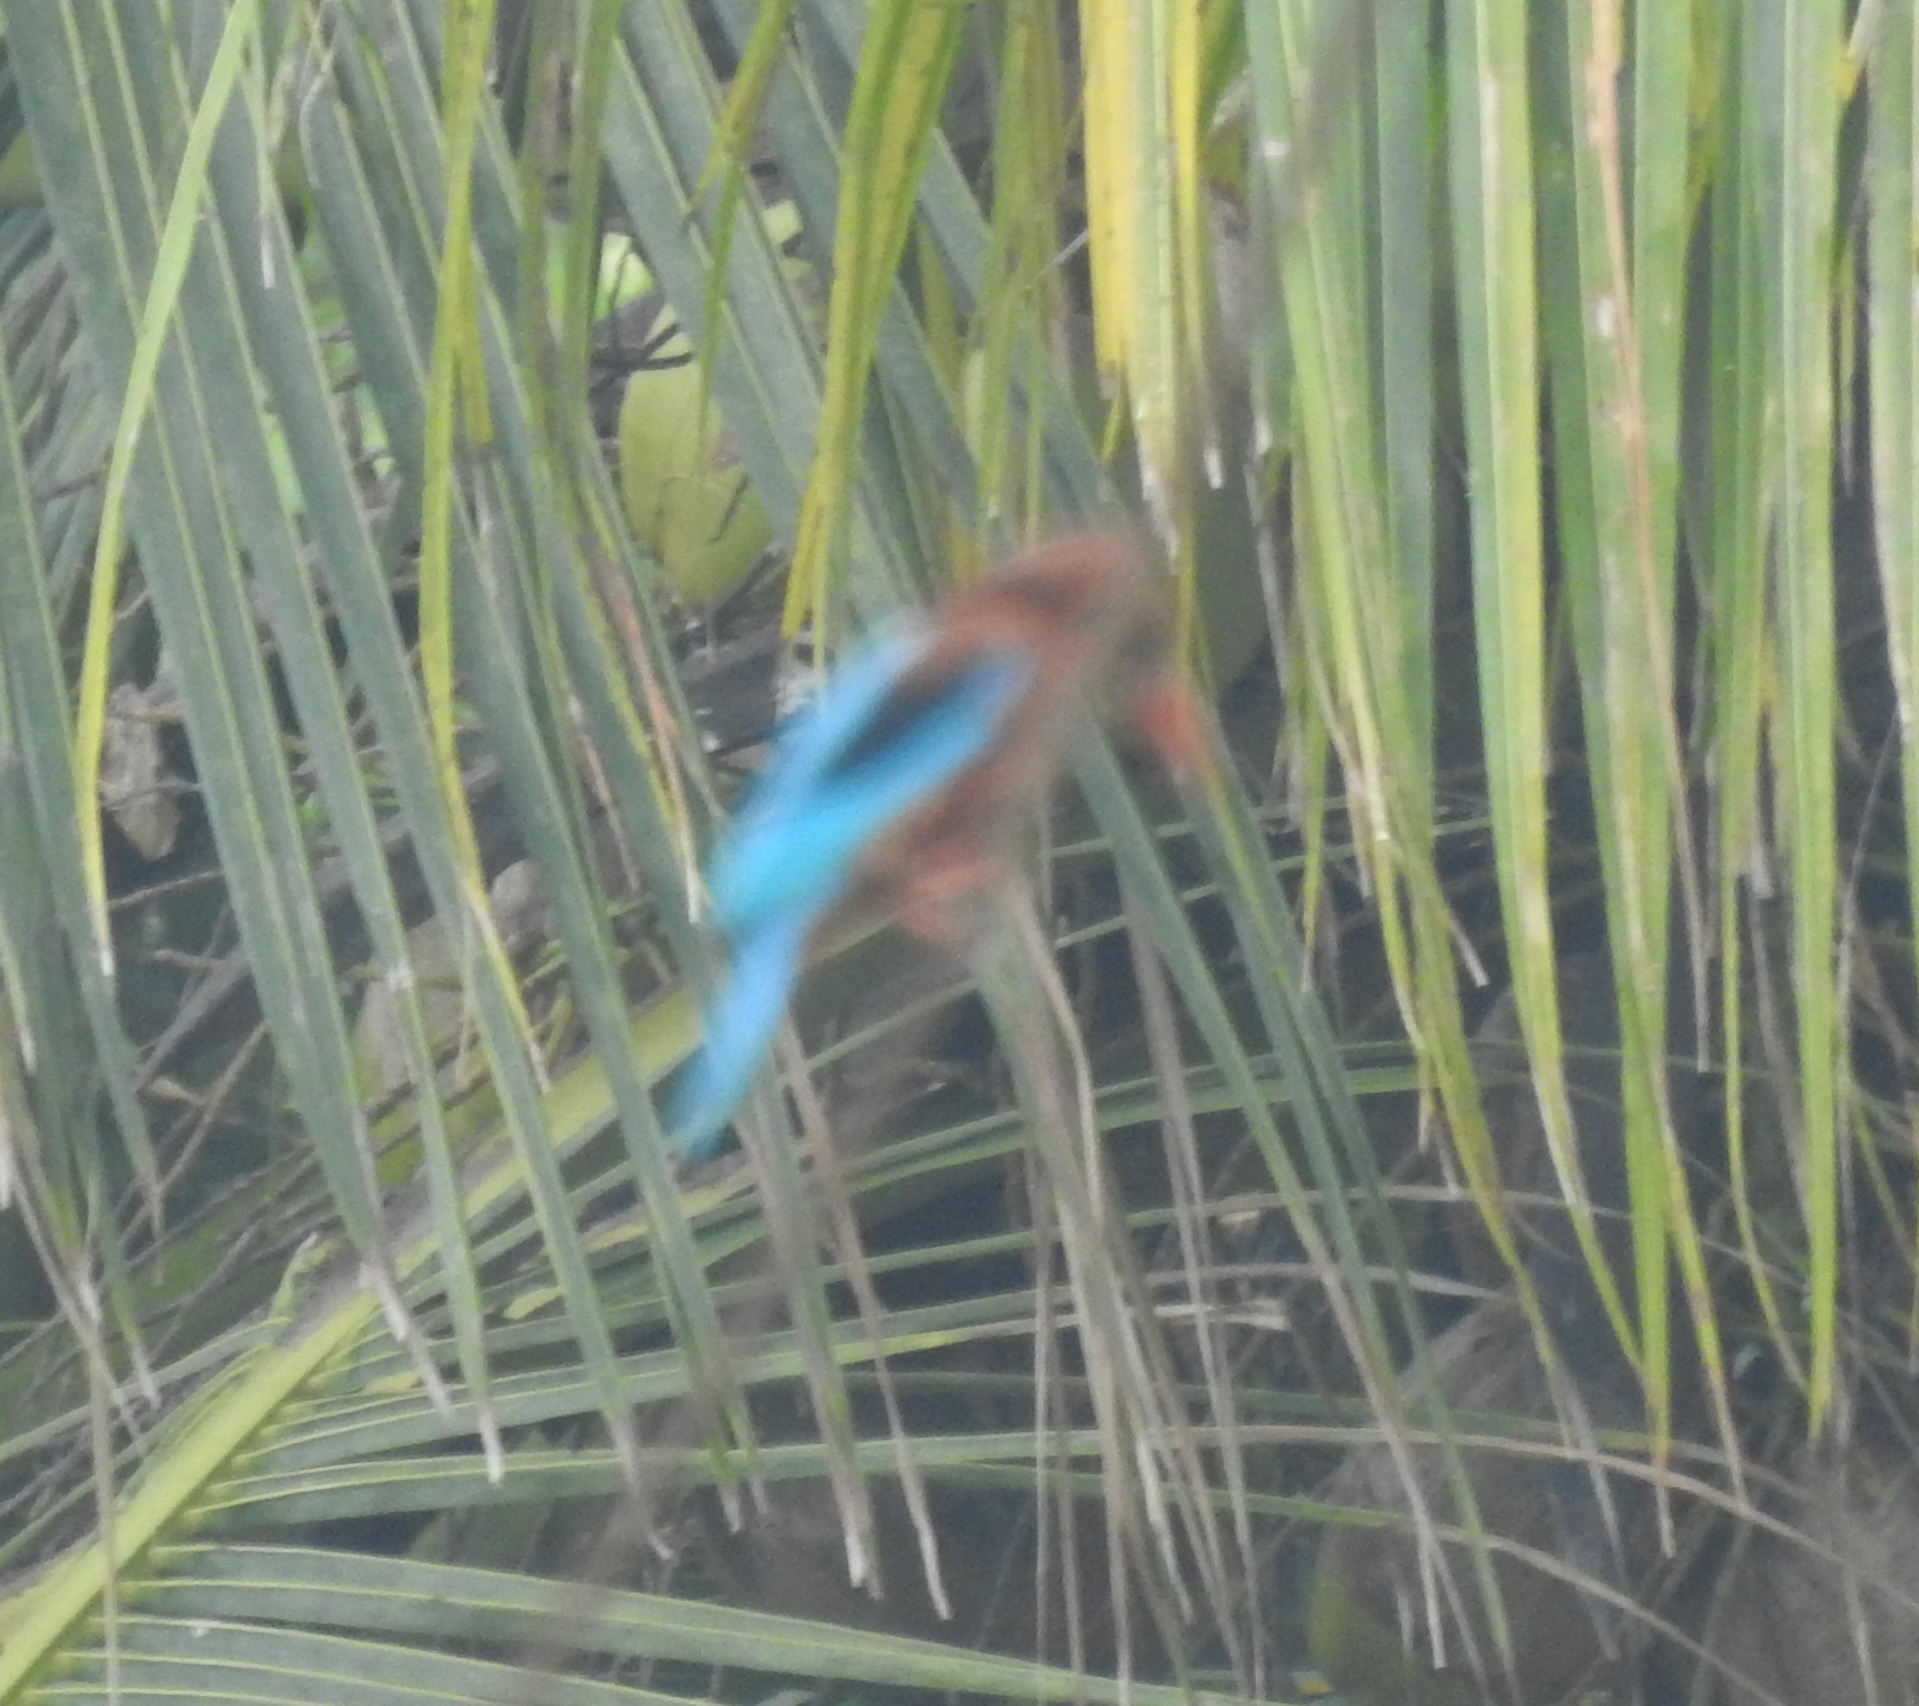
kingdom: Animalia
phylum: Chordata
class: Aves
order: Coraciiformes
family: Alcedinidae
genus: Halcyon
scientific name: Halcyon smyrnensis
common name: White-throated kingfisher
